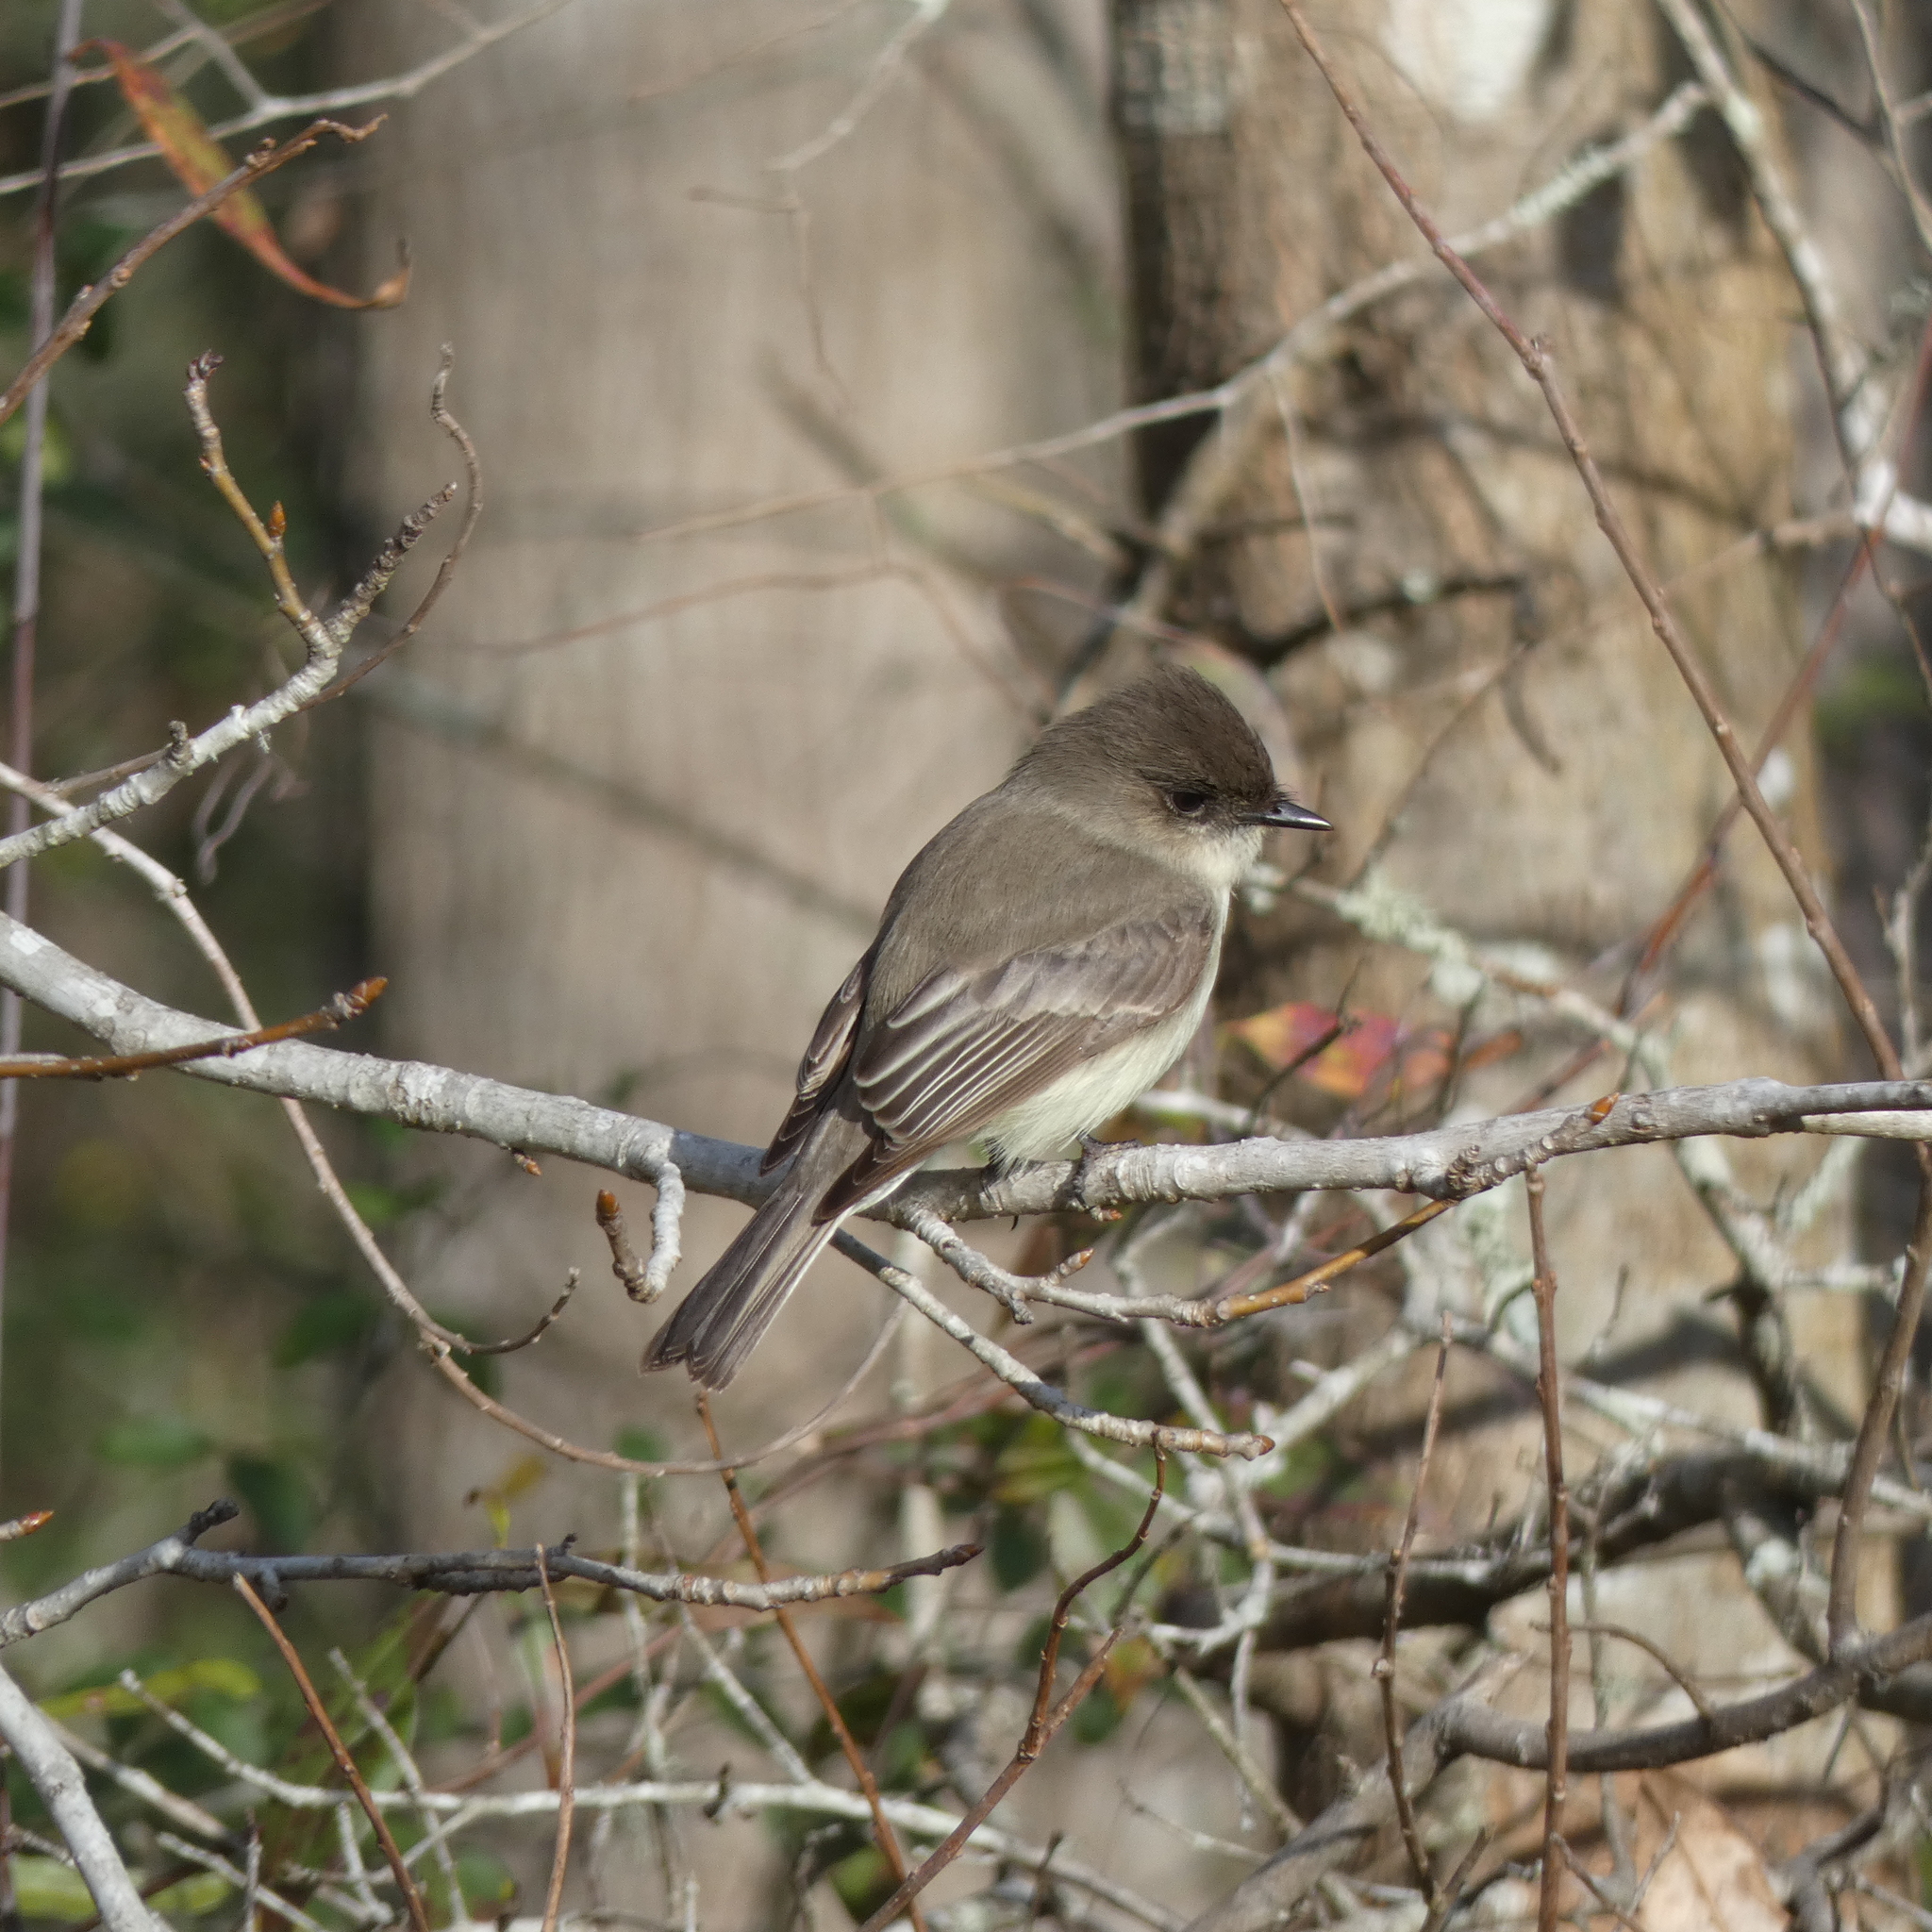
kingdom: Animalia
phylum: Chordata
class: Aves
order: Passeriformes
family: Tyrannidae
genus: Sayornis
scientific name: Sayornis phoebe
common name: Eastern phoebe
